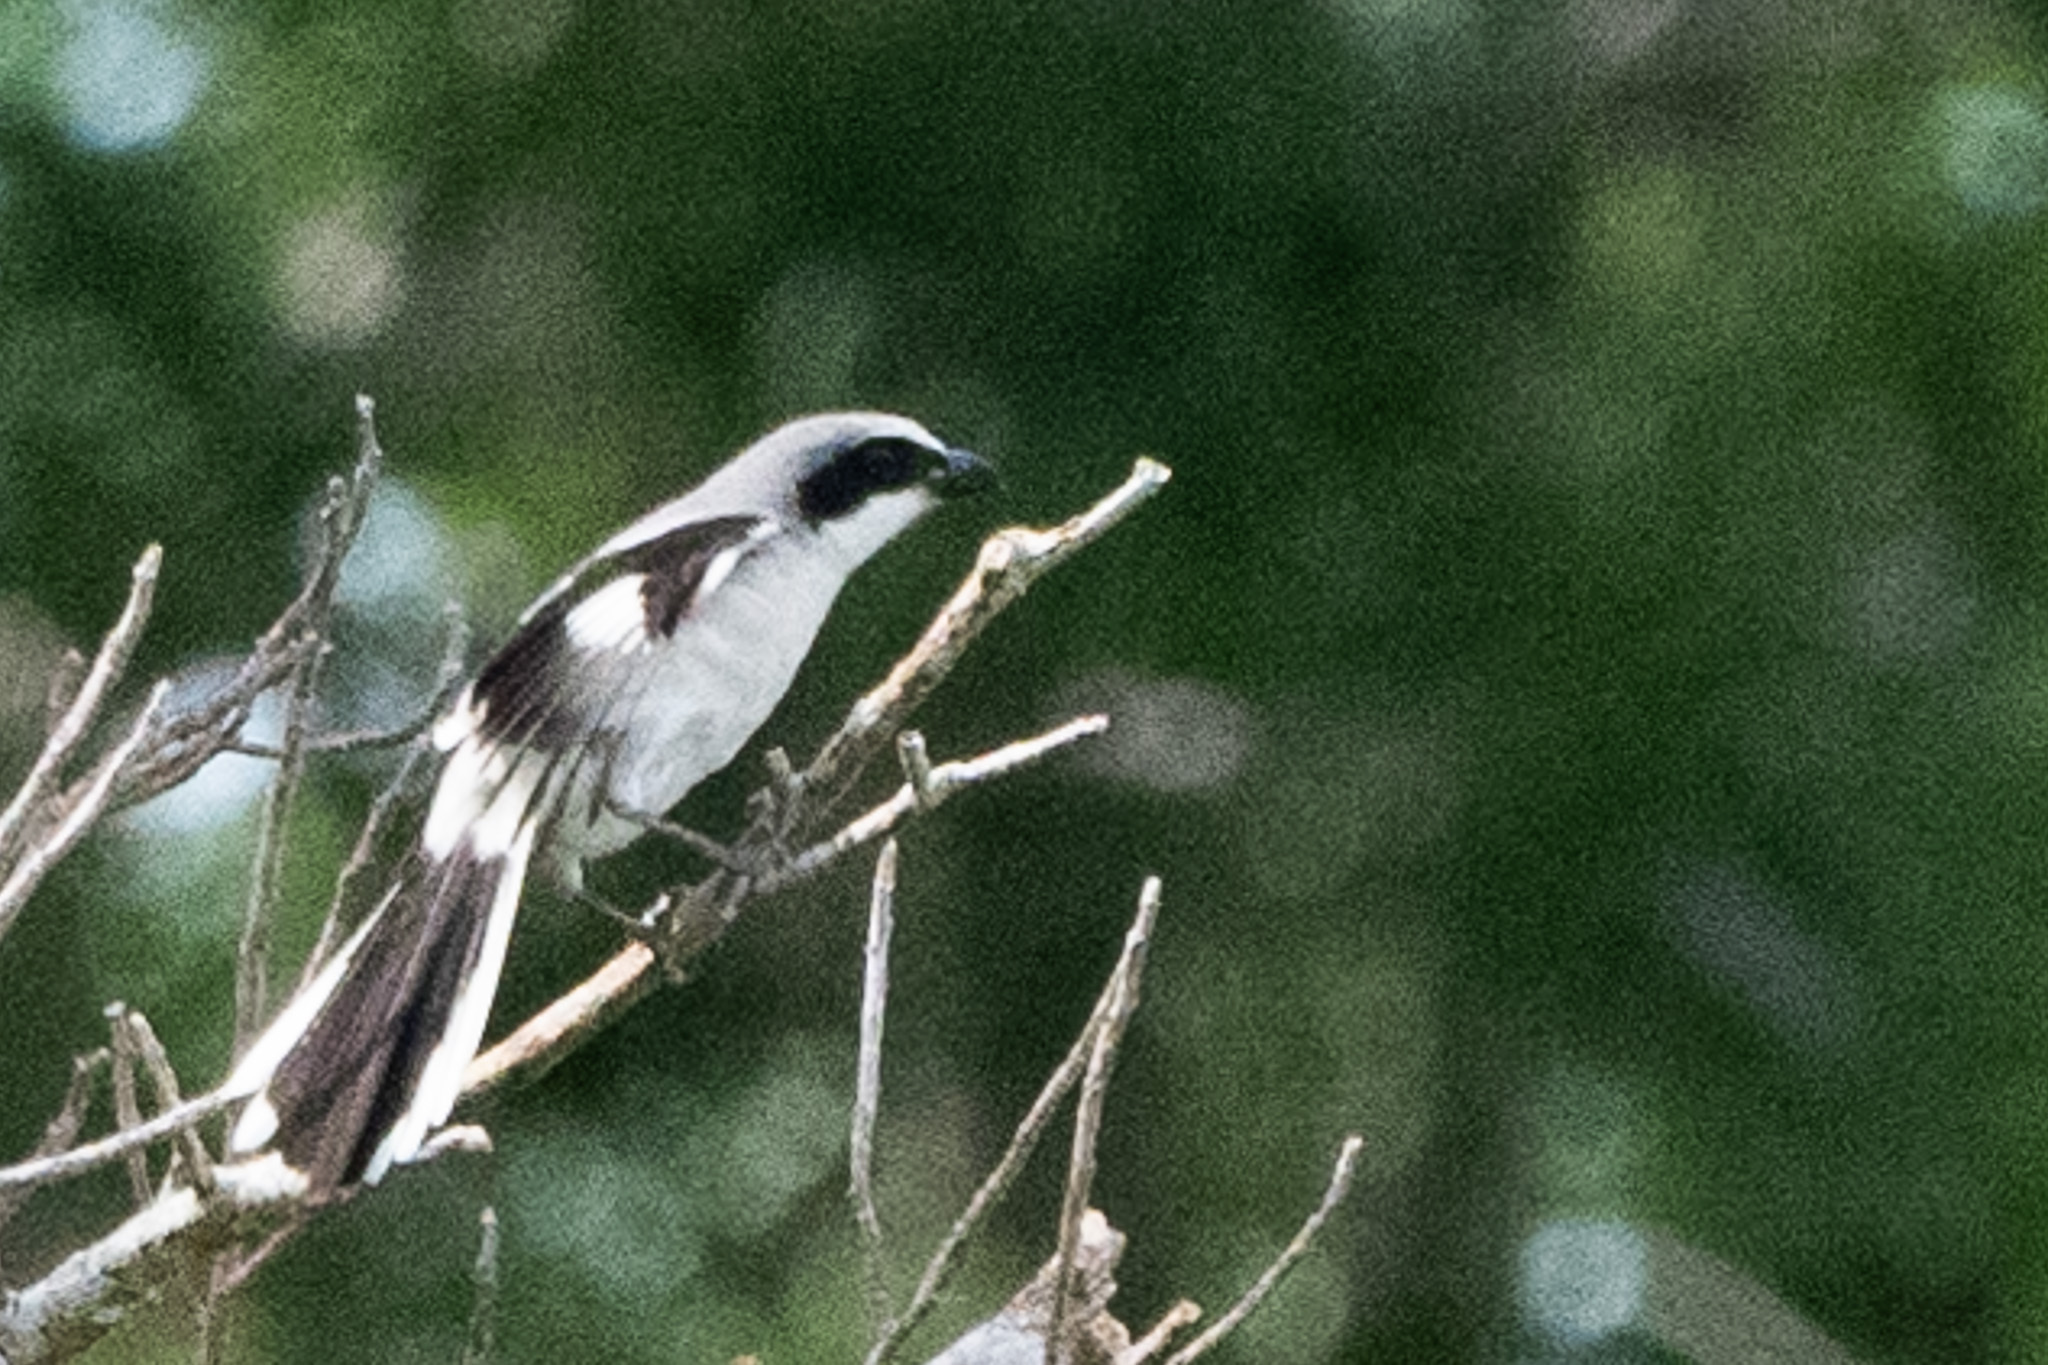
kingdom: Animalia
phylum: Chordata
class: Aves
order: Passeriformes
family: Laniidae
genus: Lanius
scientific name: Lanius ludovicianus
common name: Loggerhead shrike
